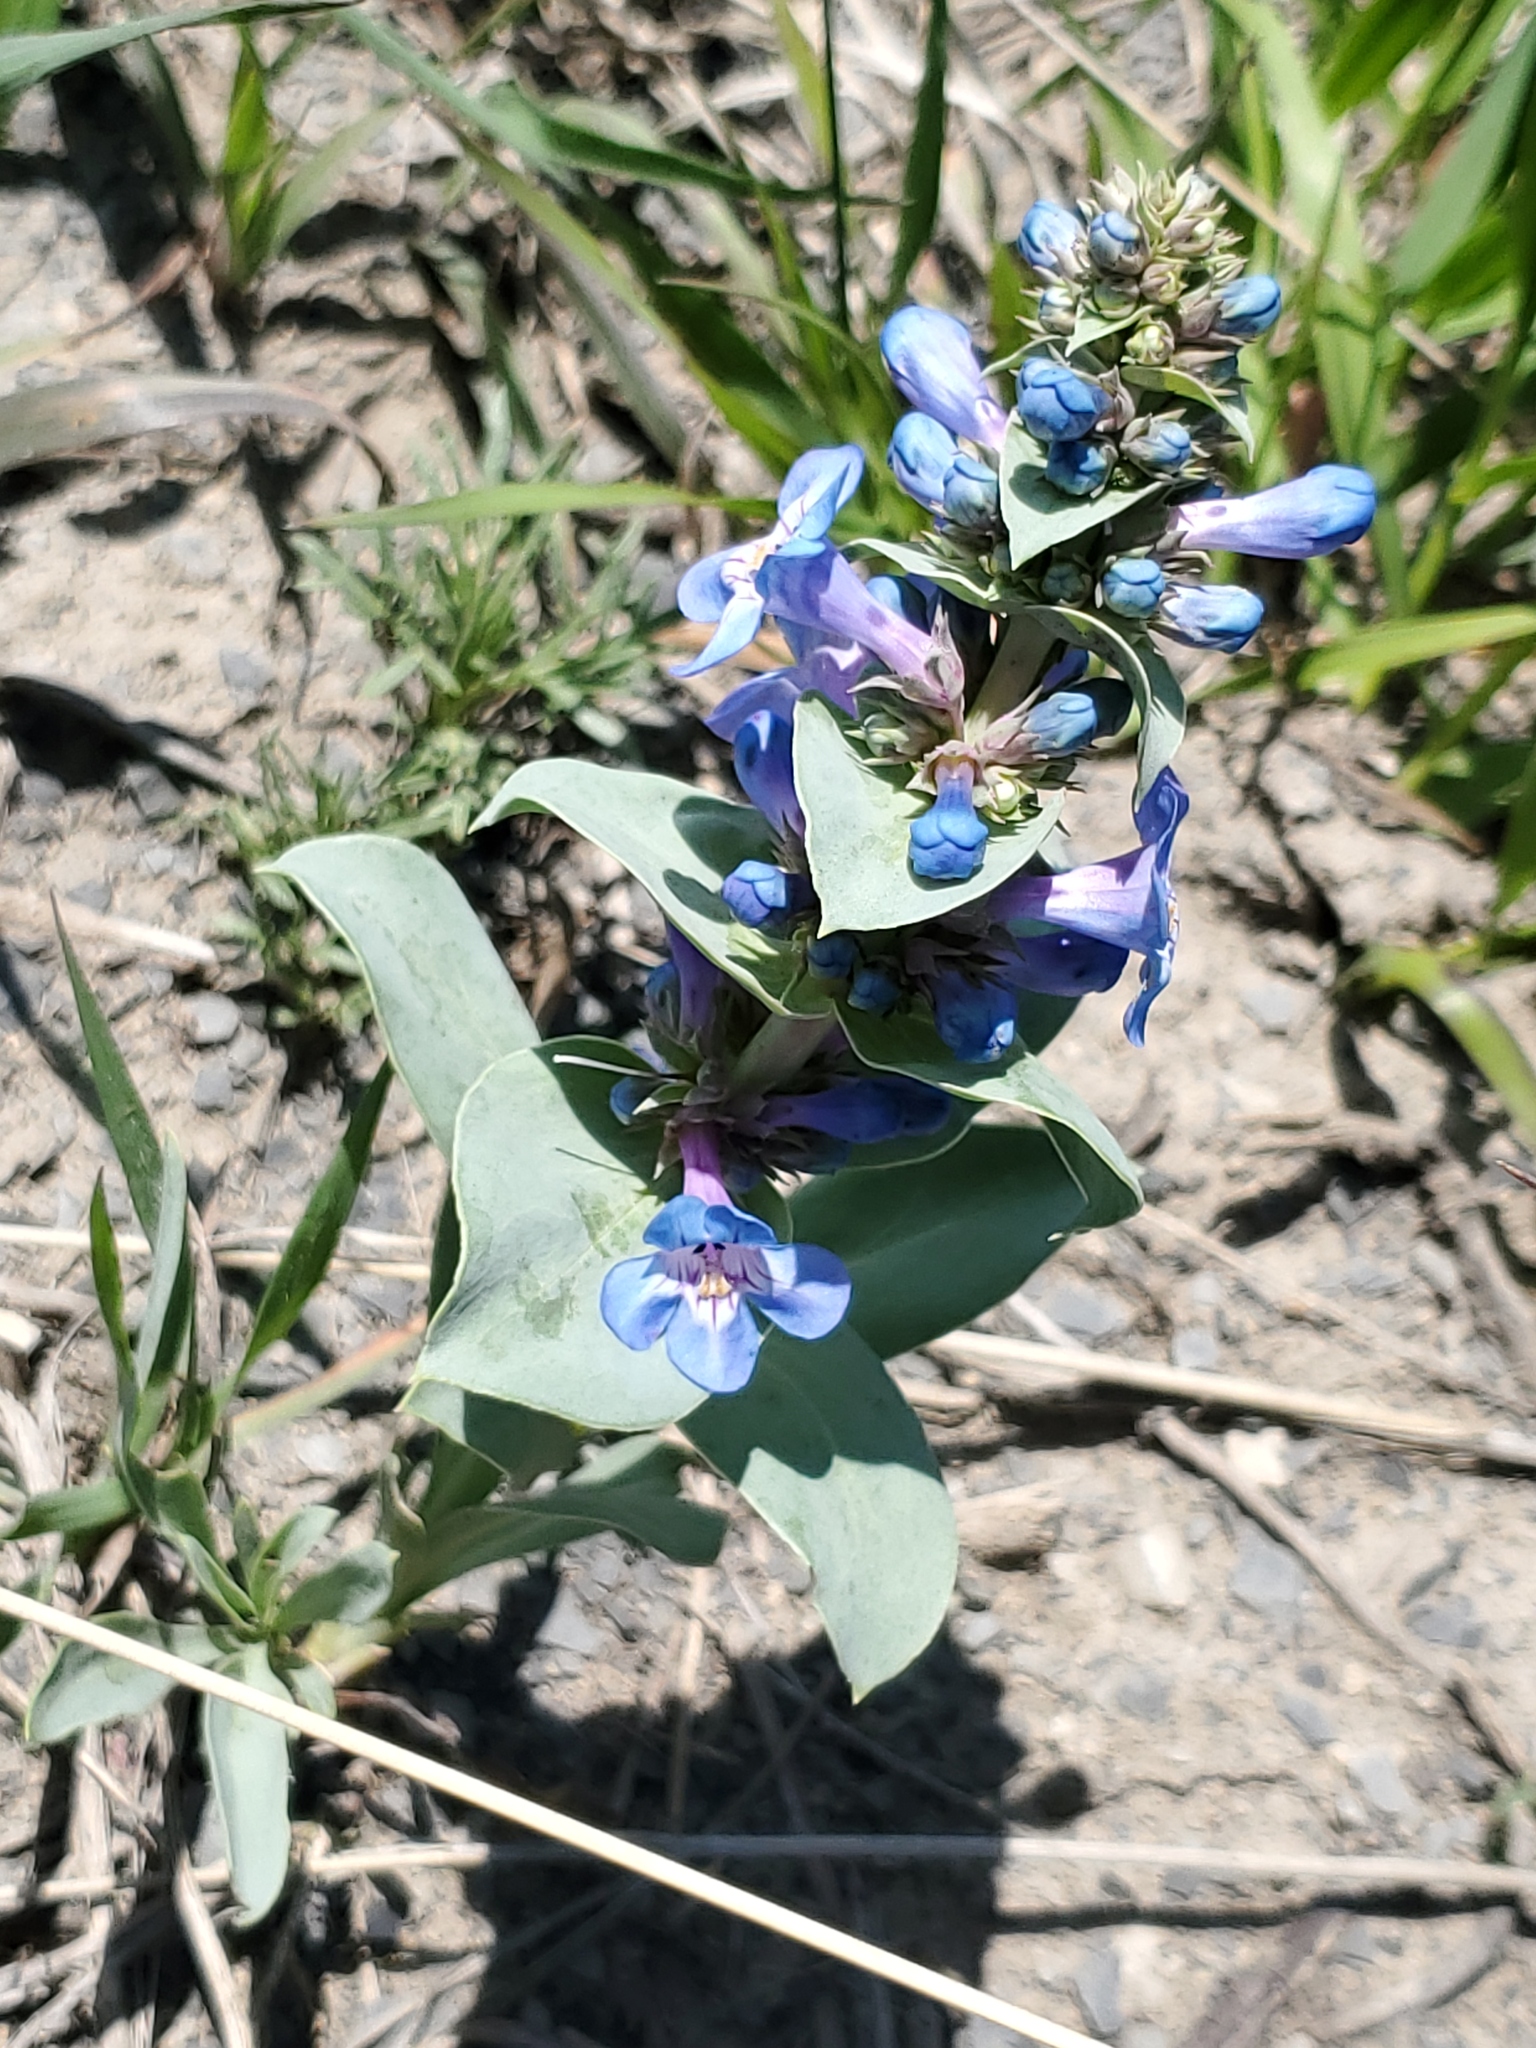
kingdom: Plantae
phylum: Tracheophyta
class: Magnoliopsida
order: Lamiales
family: Plantaginaceae
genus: Penstemon
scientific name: Penstemon nitidus
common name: Shining penstemon
